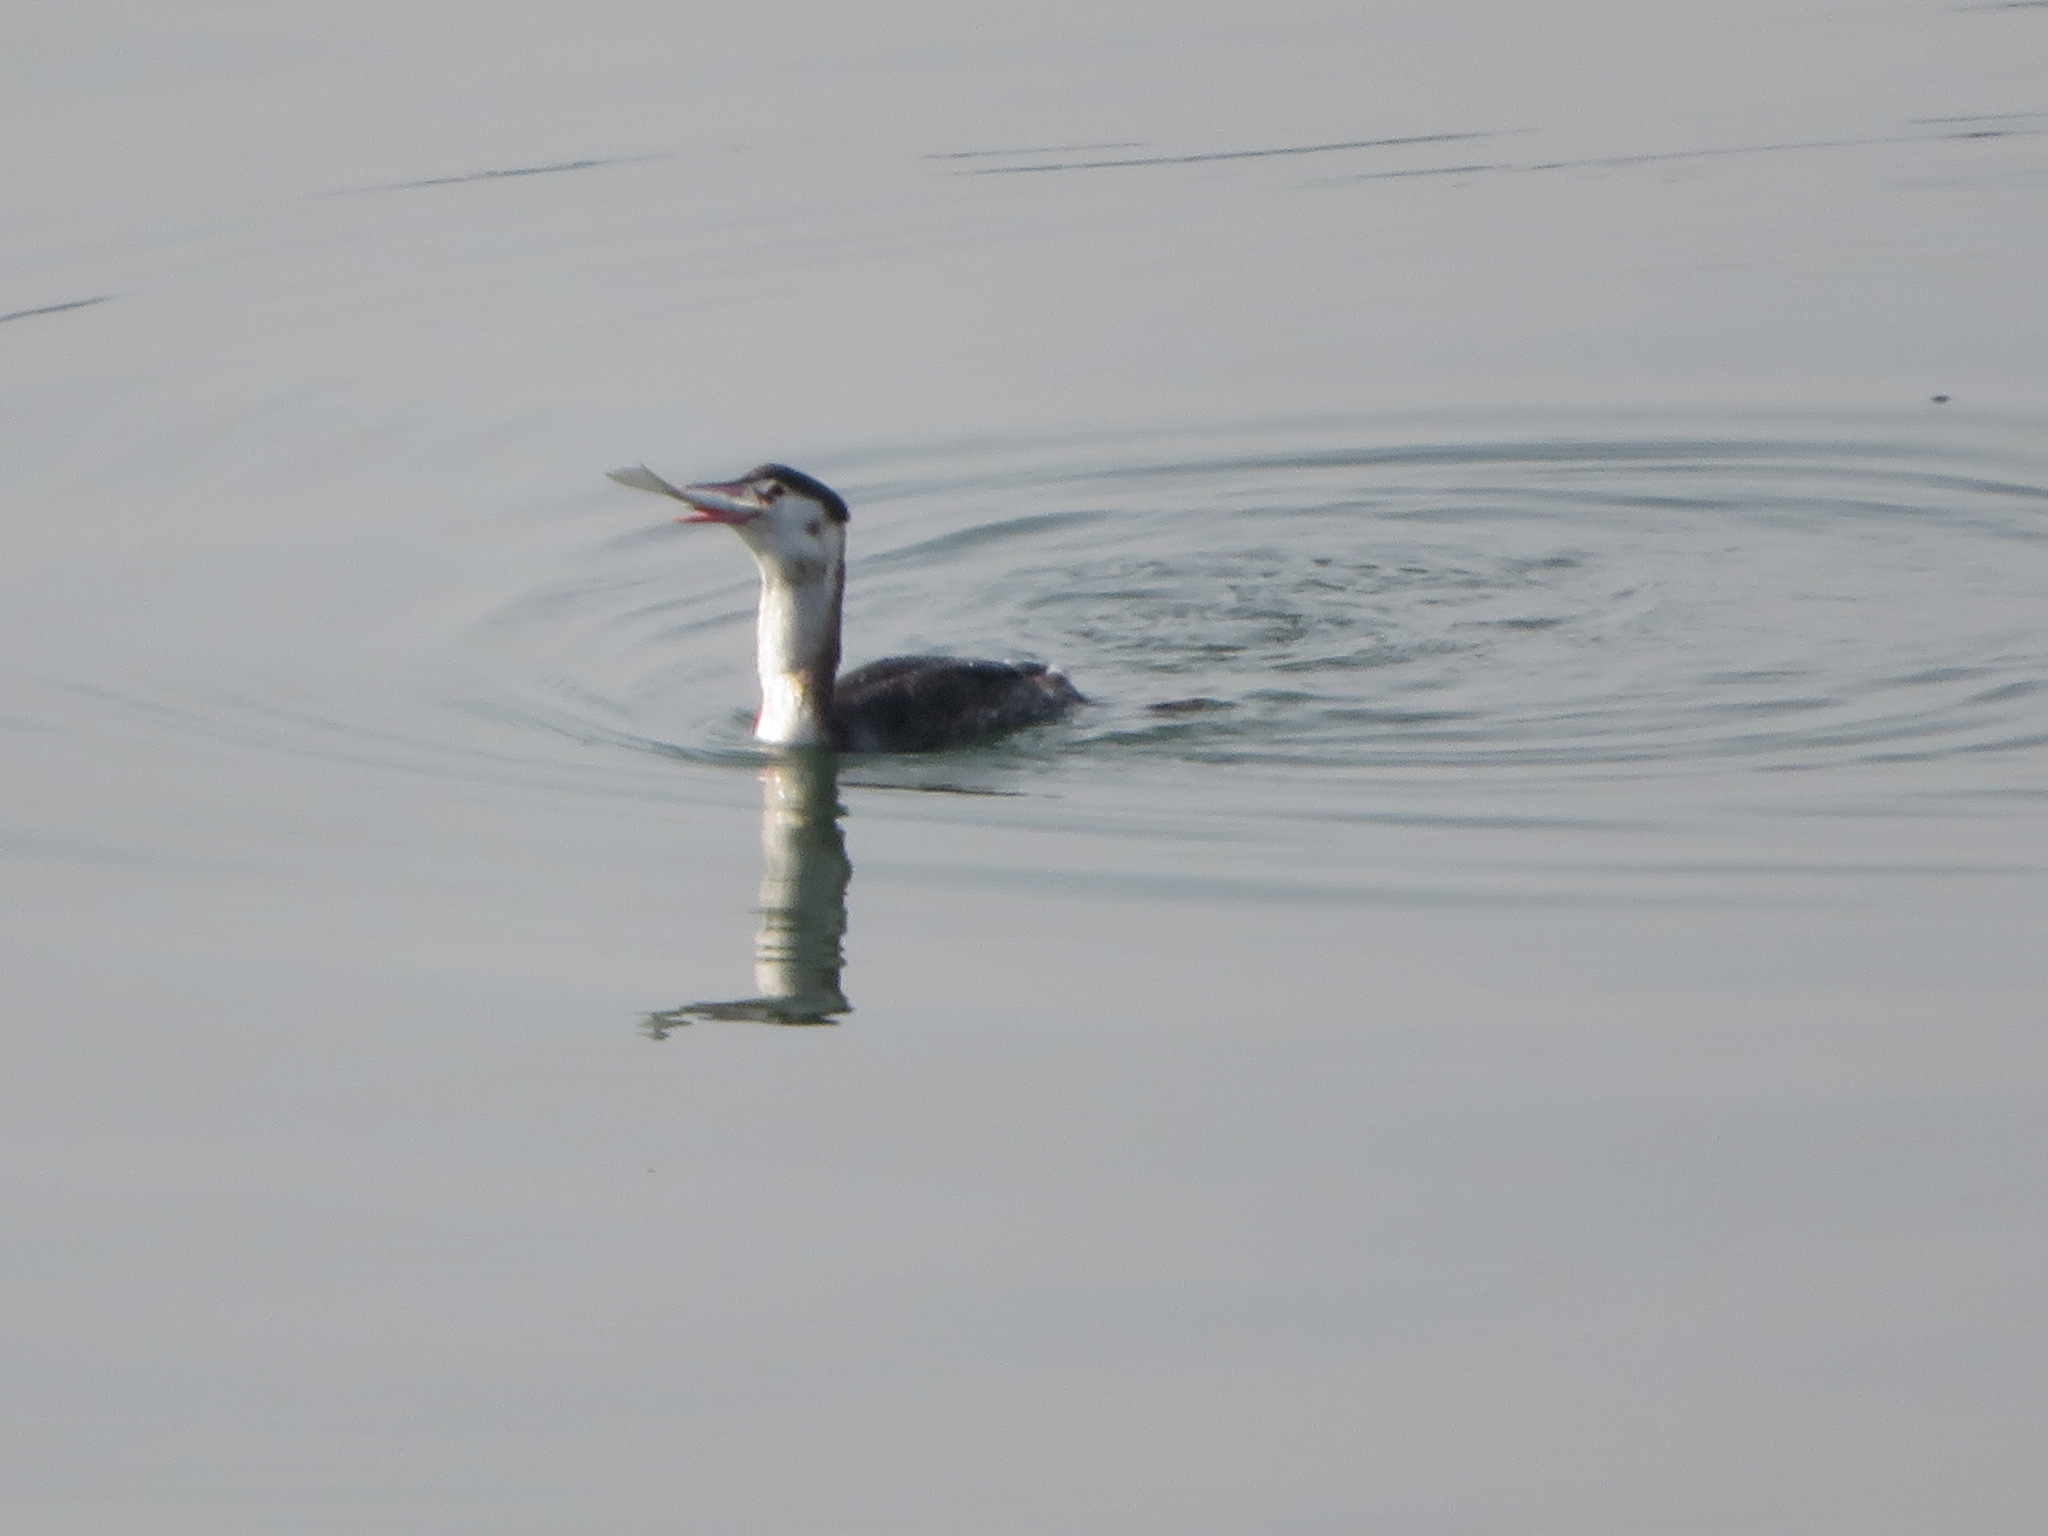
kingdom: Animalia
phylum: Chordata
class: Aves
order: Podicipediformes
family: Podicipedidae
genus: Podiceps
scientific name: Podiceps cristatus
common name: Great crested grebe
